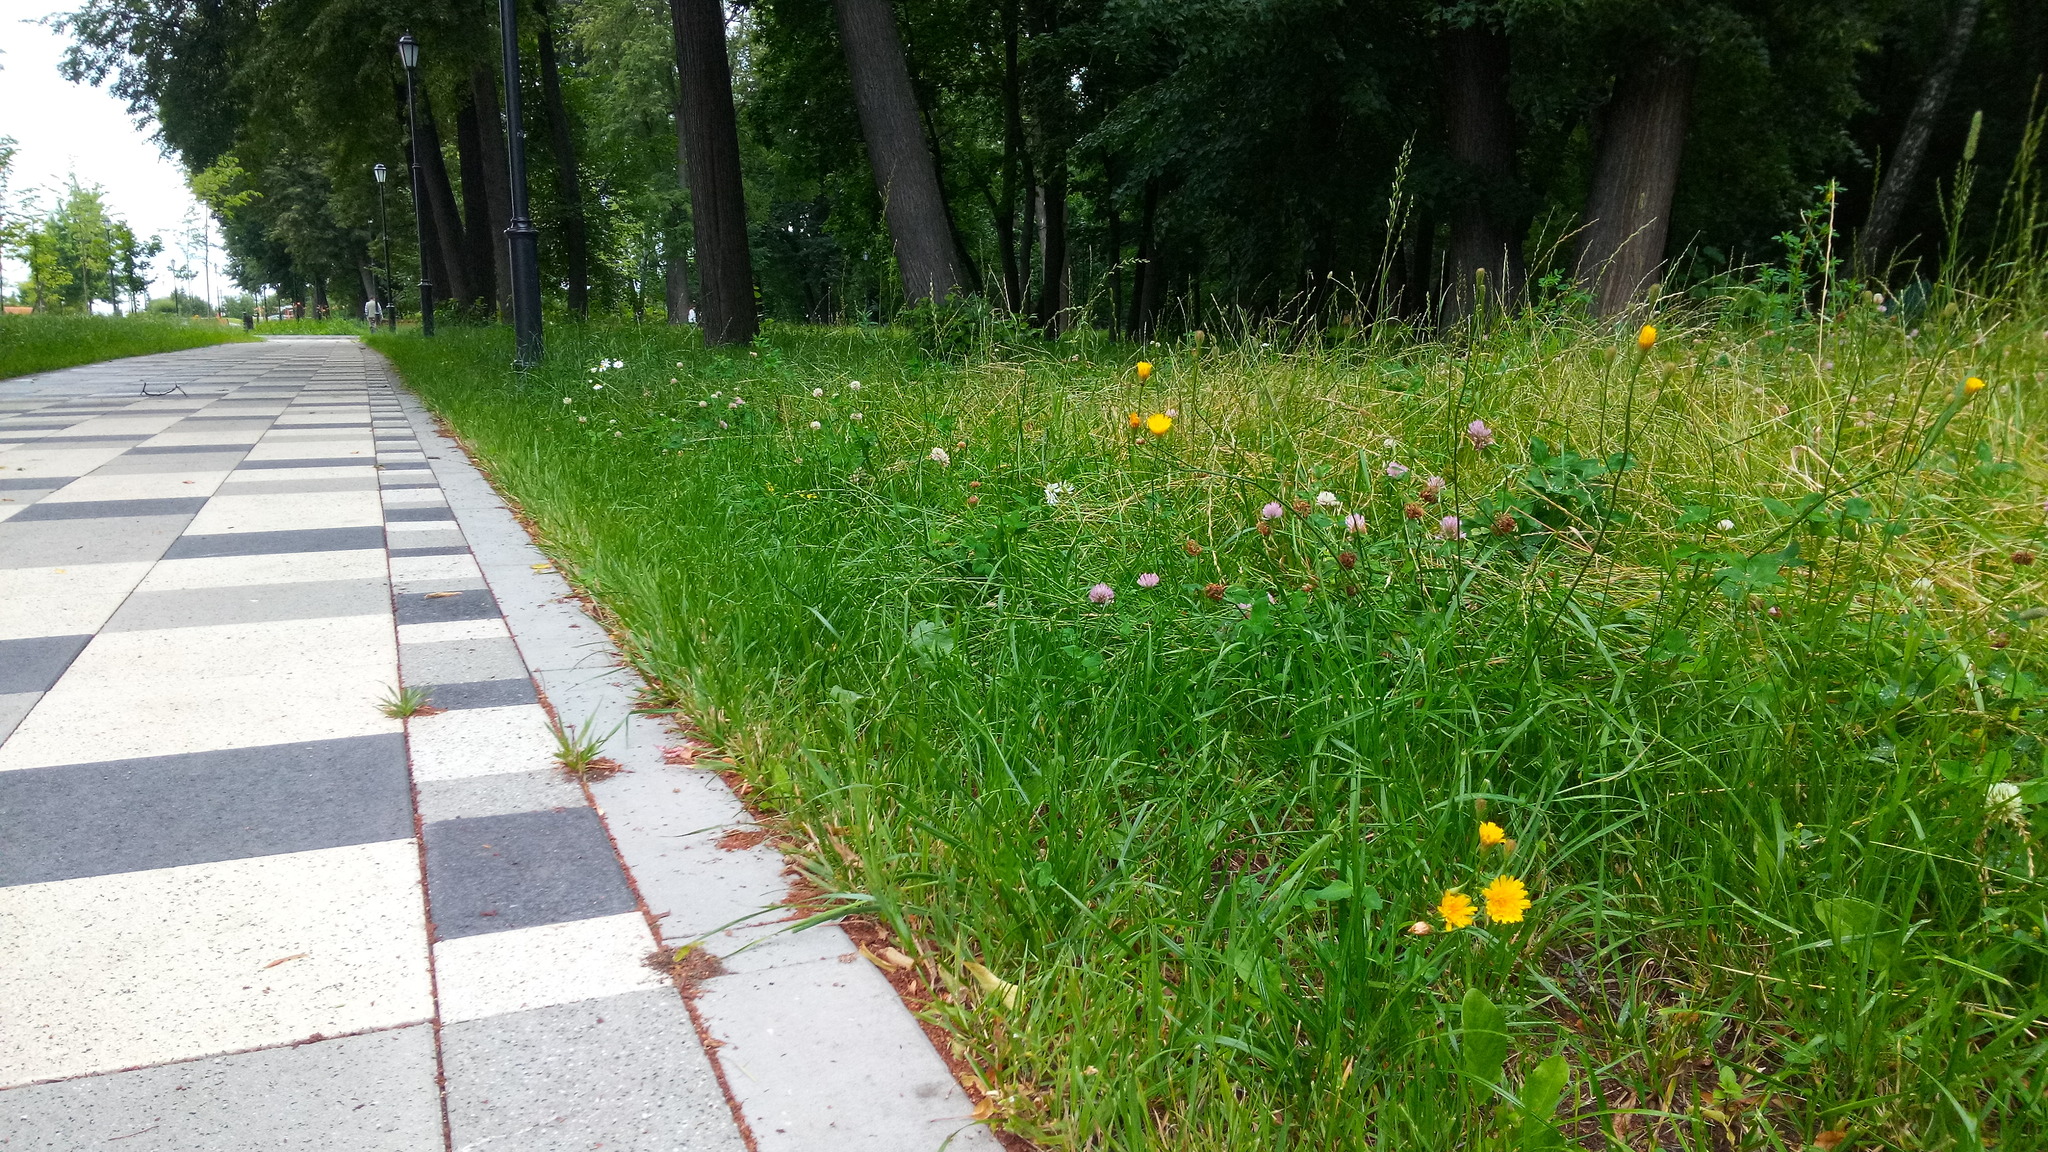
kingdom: Plantae
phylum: Tracheophyta
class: Magnoliopsida
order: Asterales
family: Asteraceae
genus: Scorzoneroides
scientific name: Scorzoneroides autumnalis
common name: Autumn hawkbit
